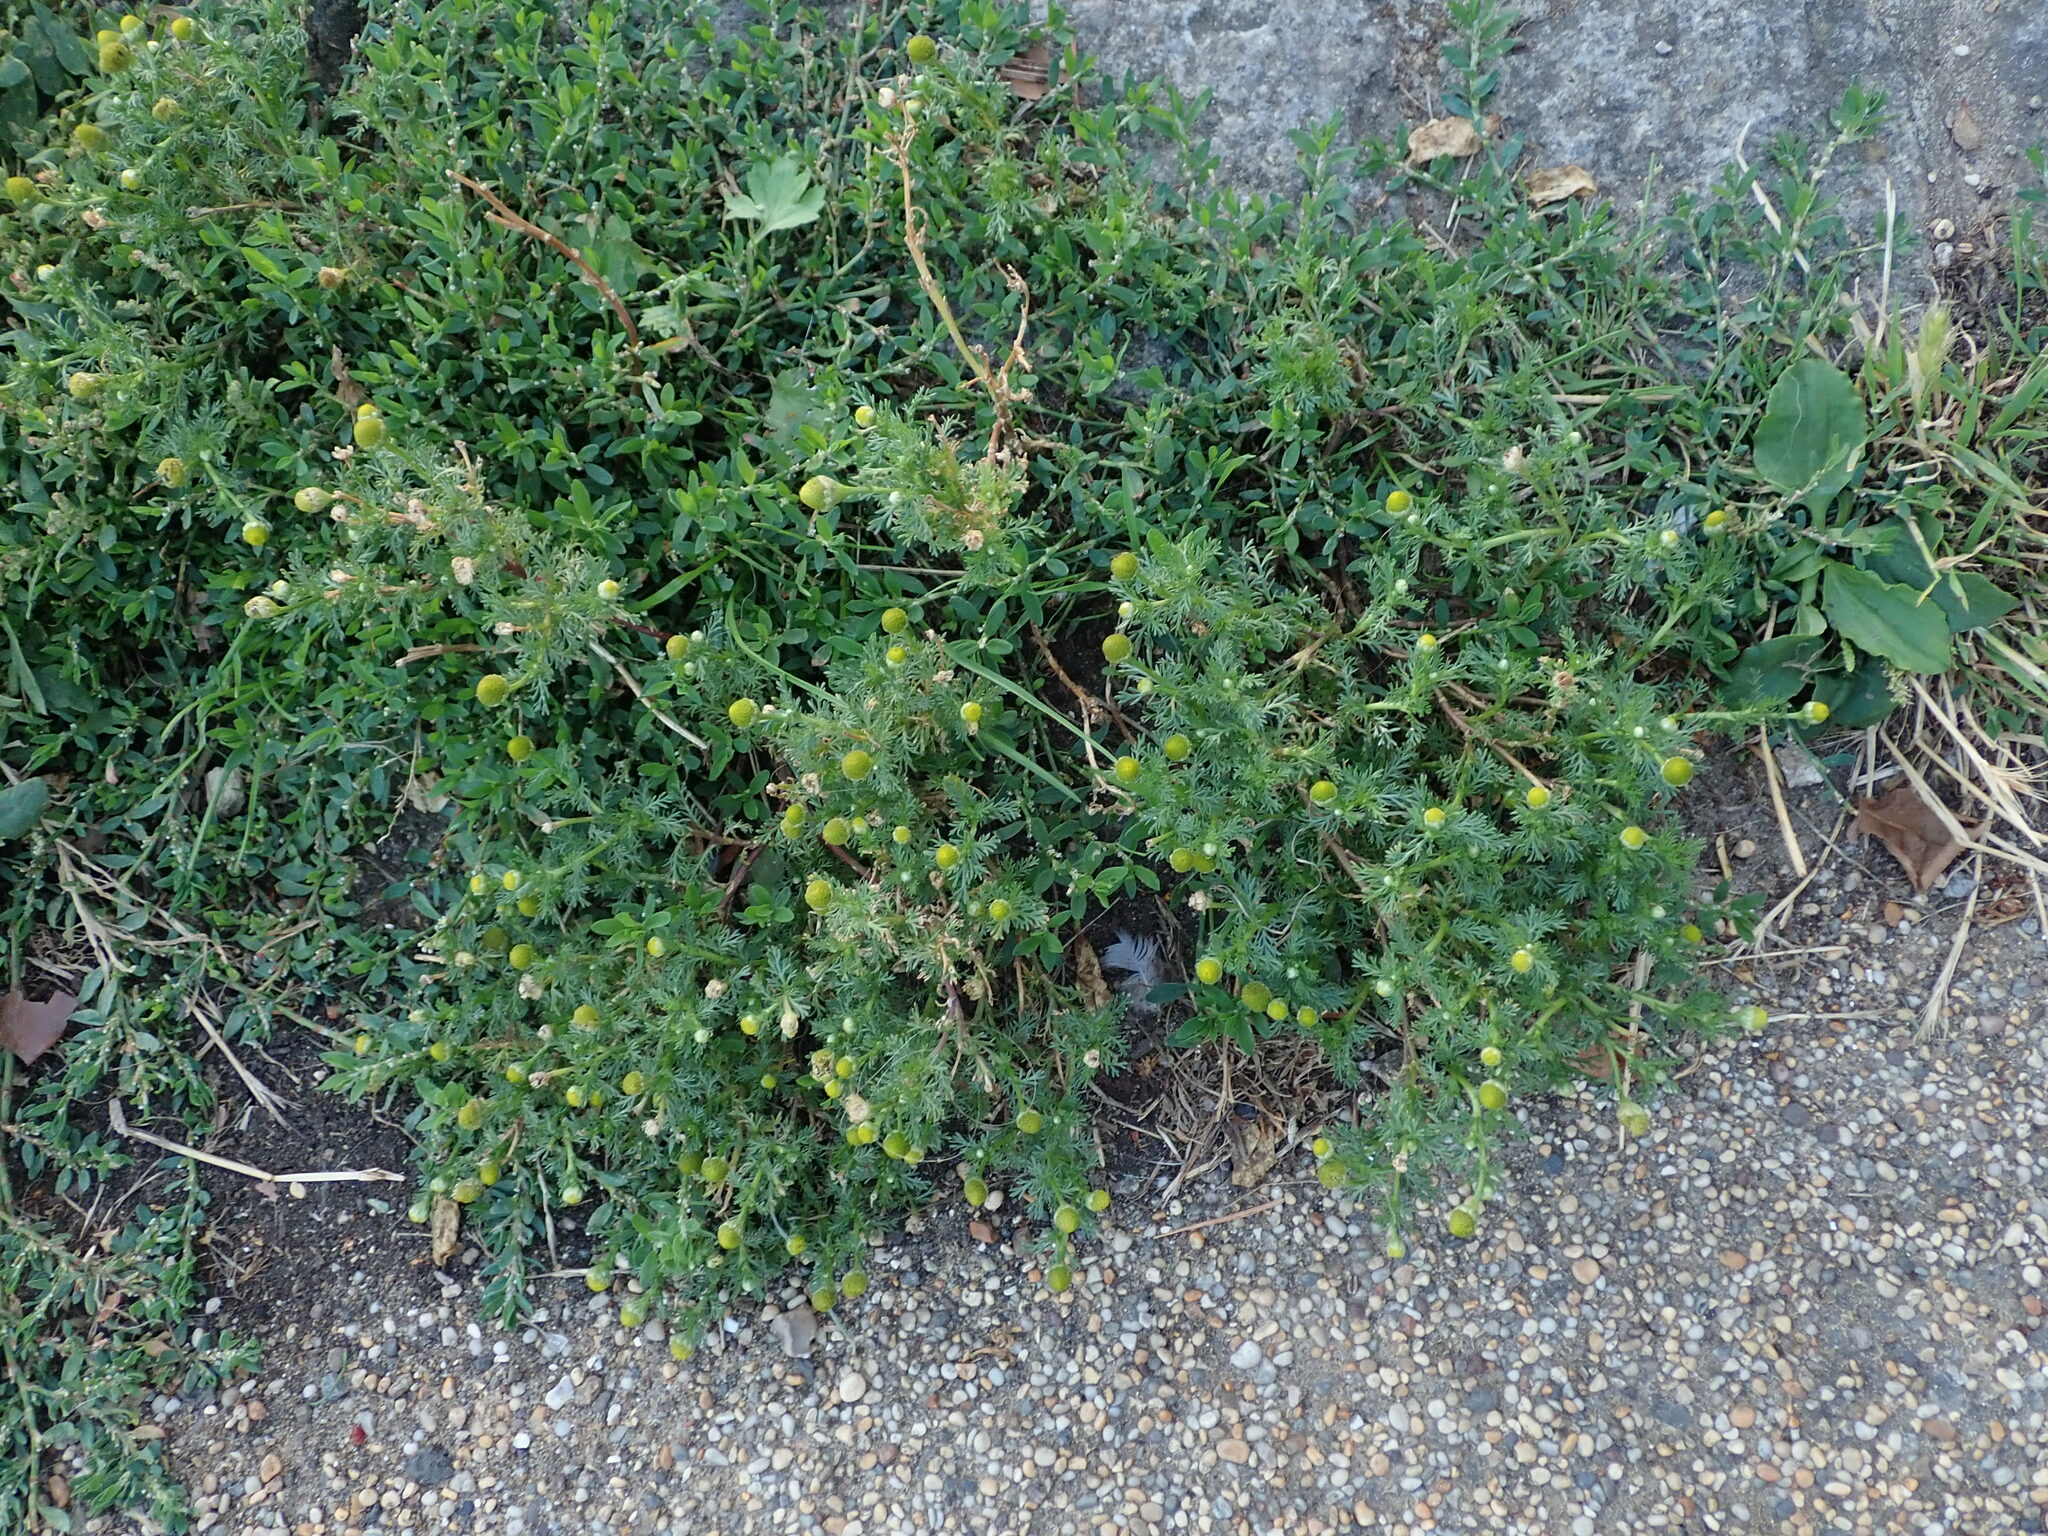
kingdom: Plantae
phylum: Tracheophyta
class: Magnoliopsida
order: Asterales
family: Asteraceae
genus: Matricaria
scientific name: Matricaria discoidea
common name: Disc mayweed
